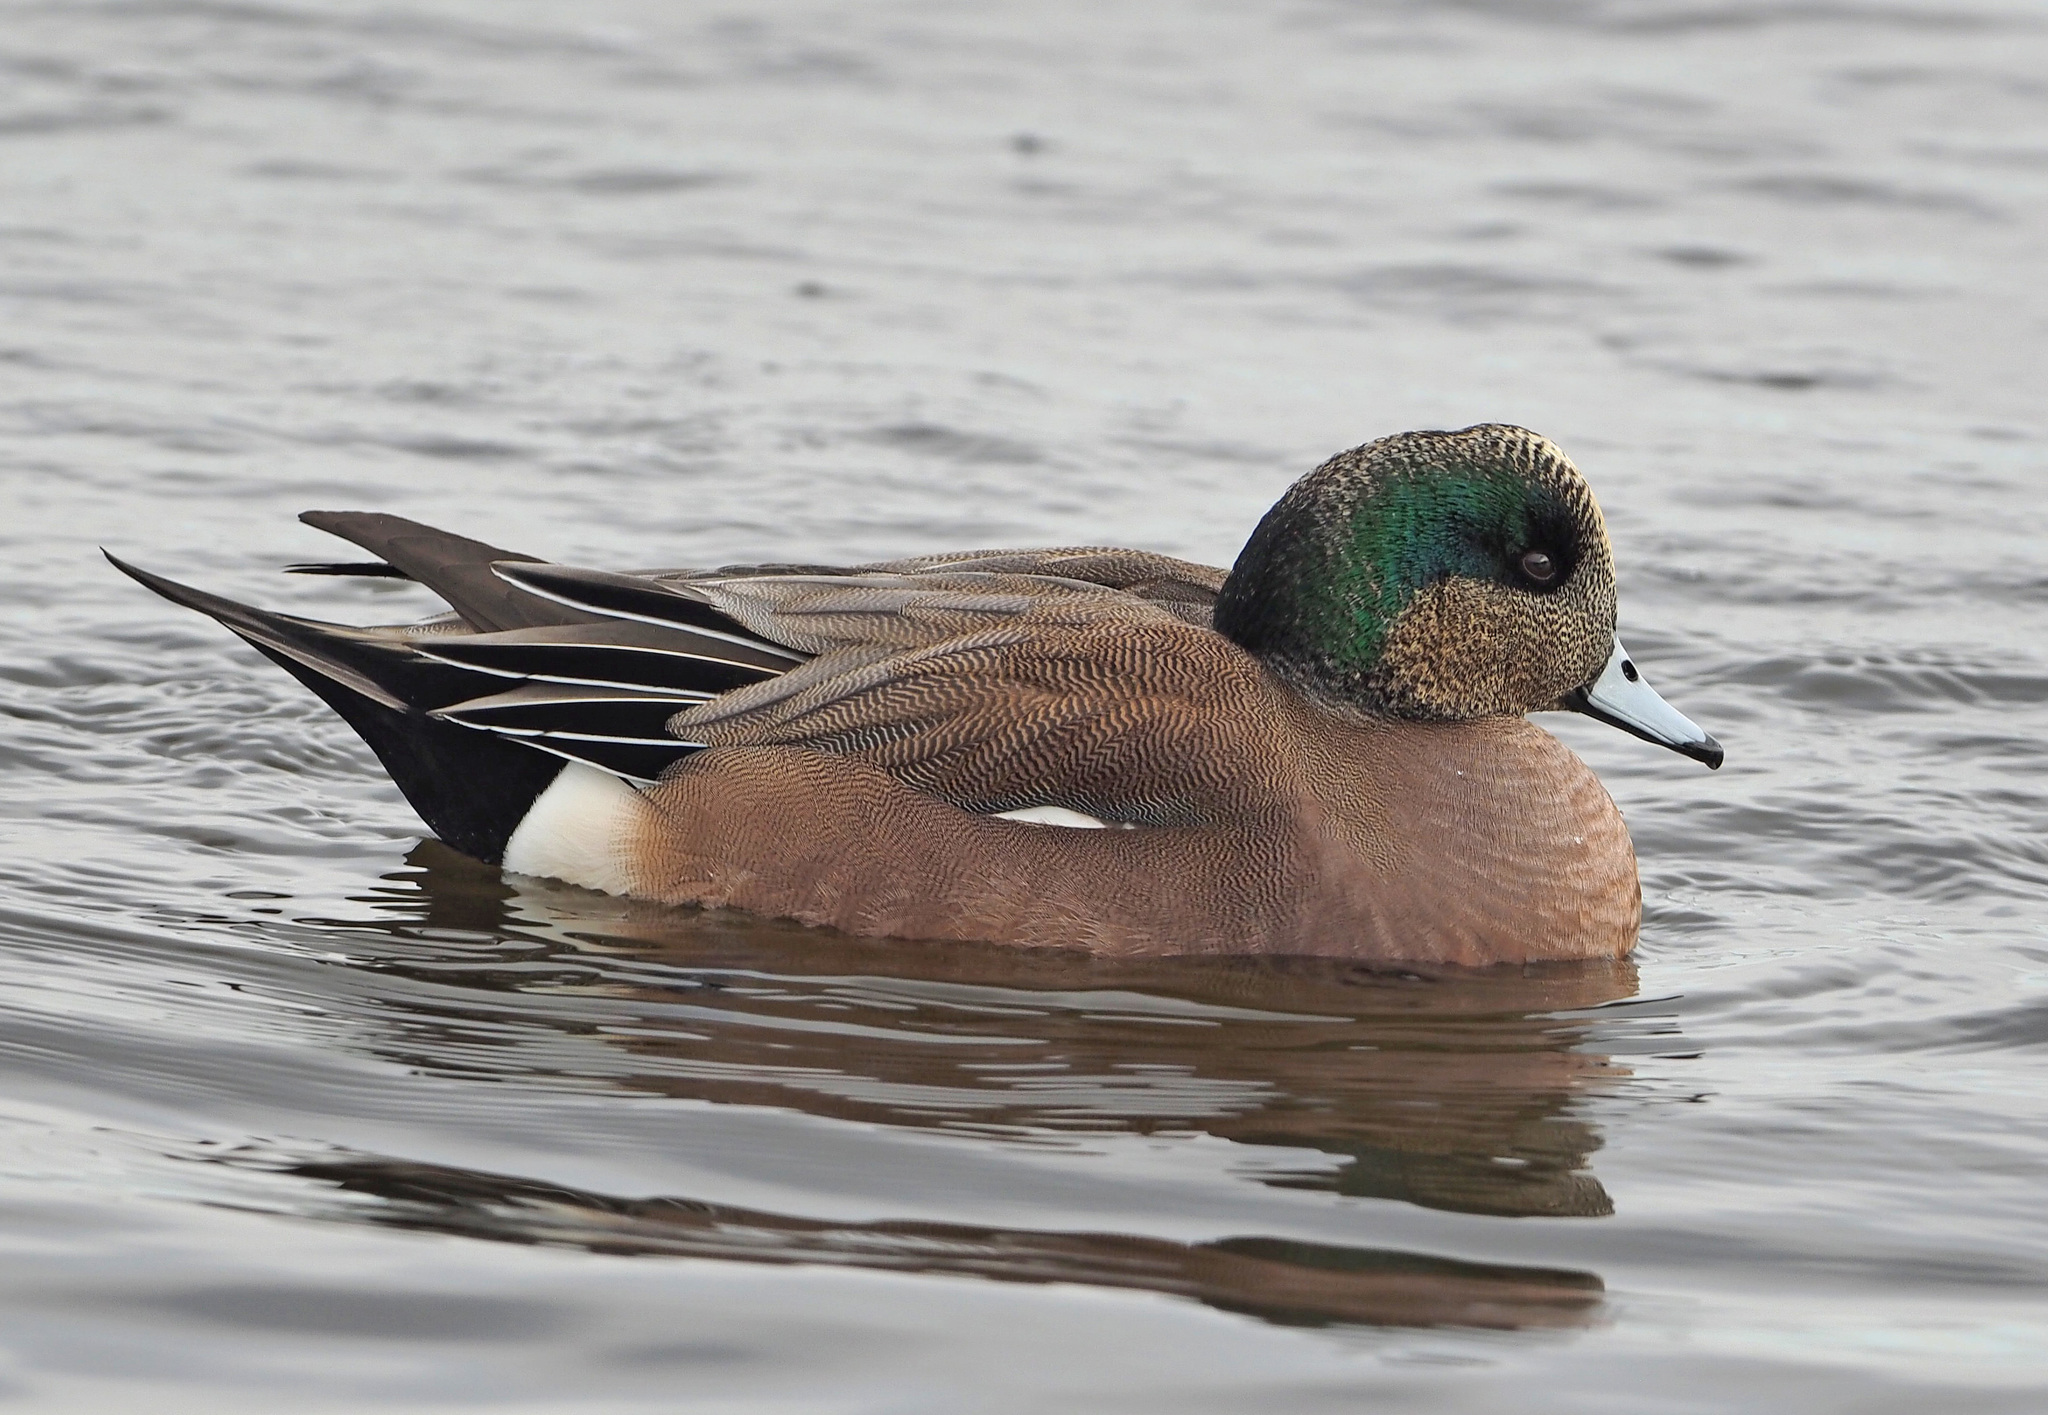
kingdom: Animalia
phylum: Chordata
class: Aves
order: Anseriformes
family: Anatidae
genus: Mareca
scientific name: Mareca americana
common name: American wigeon
